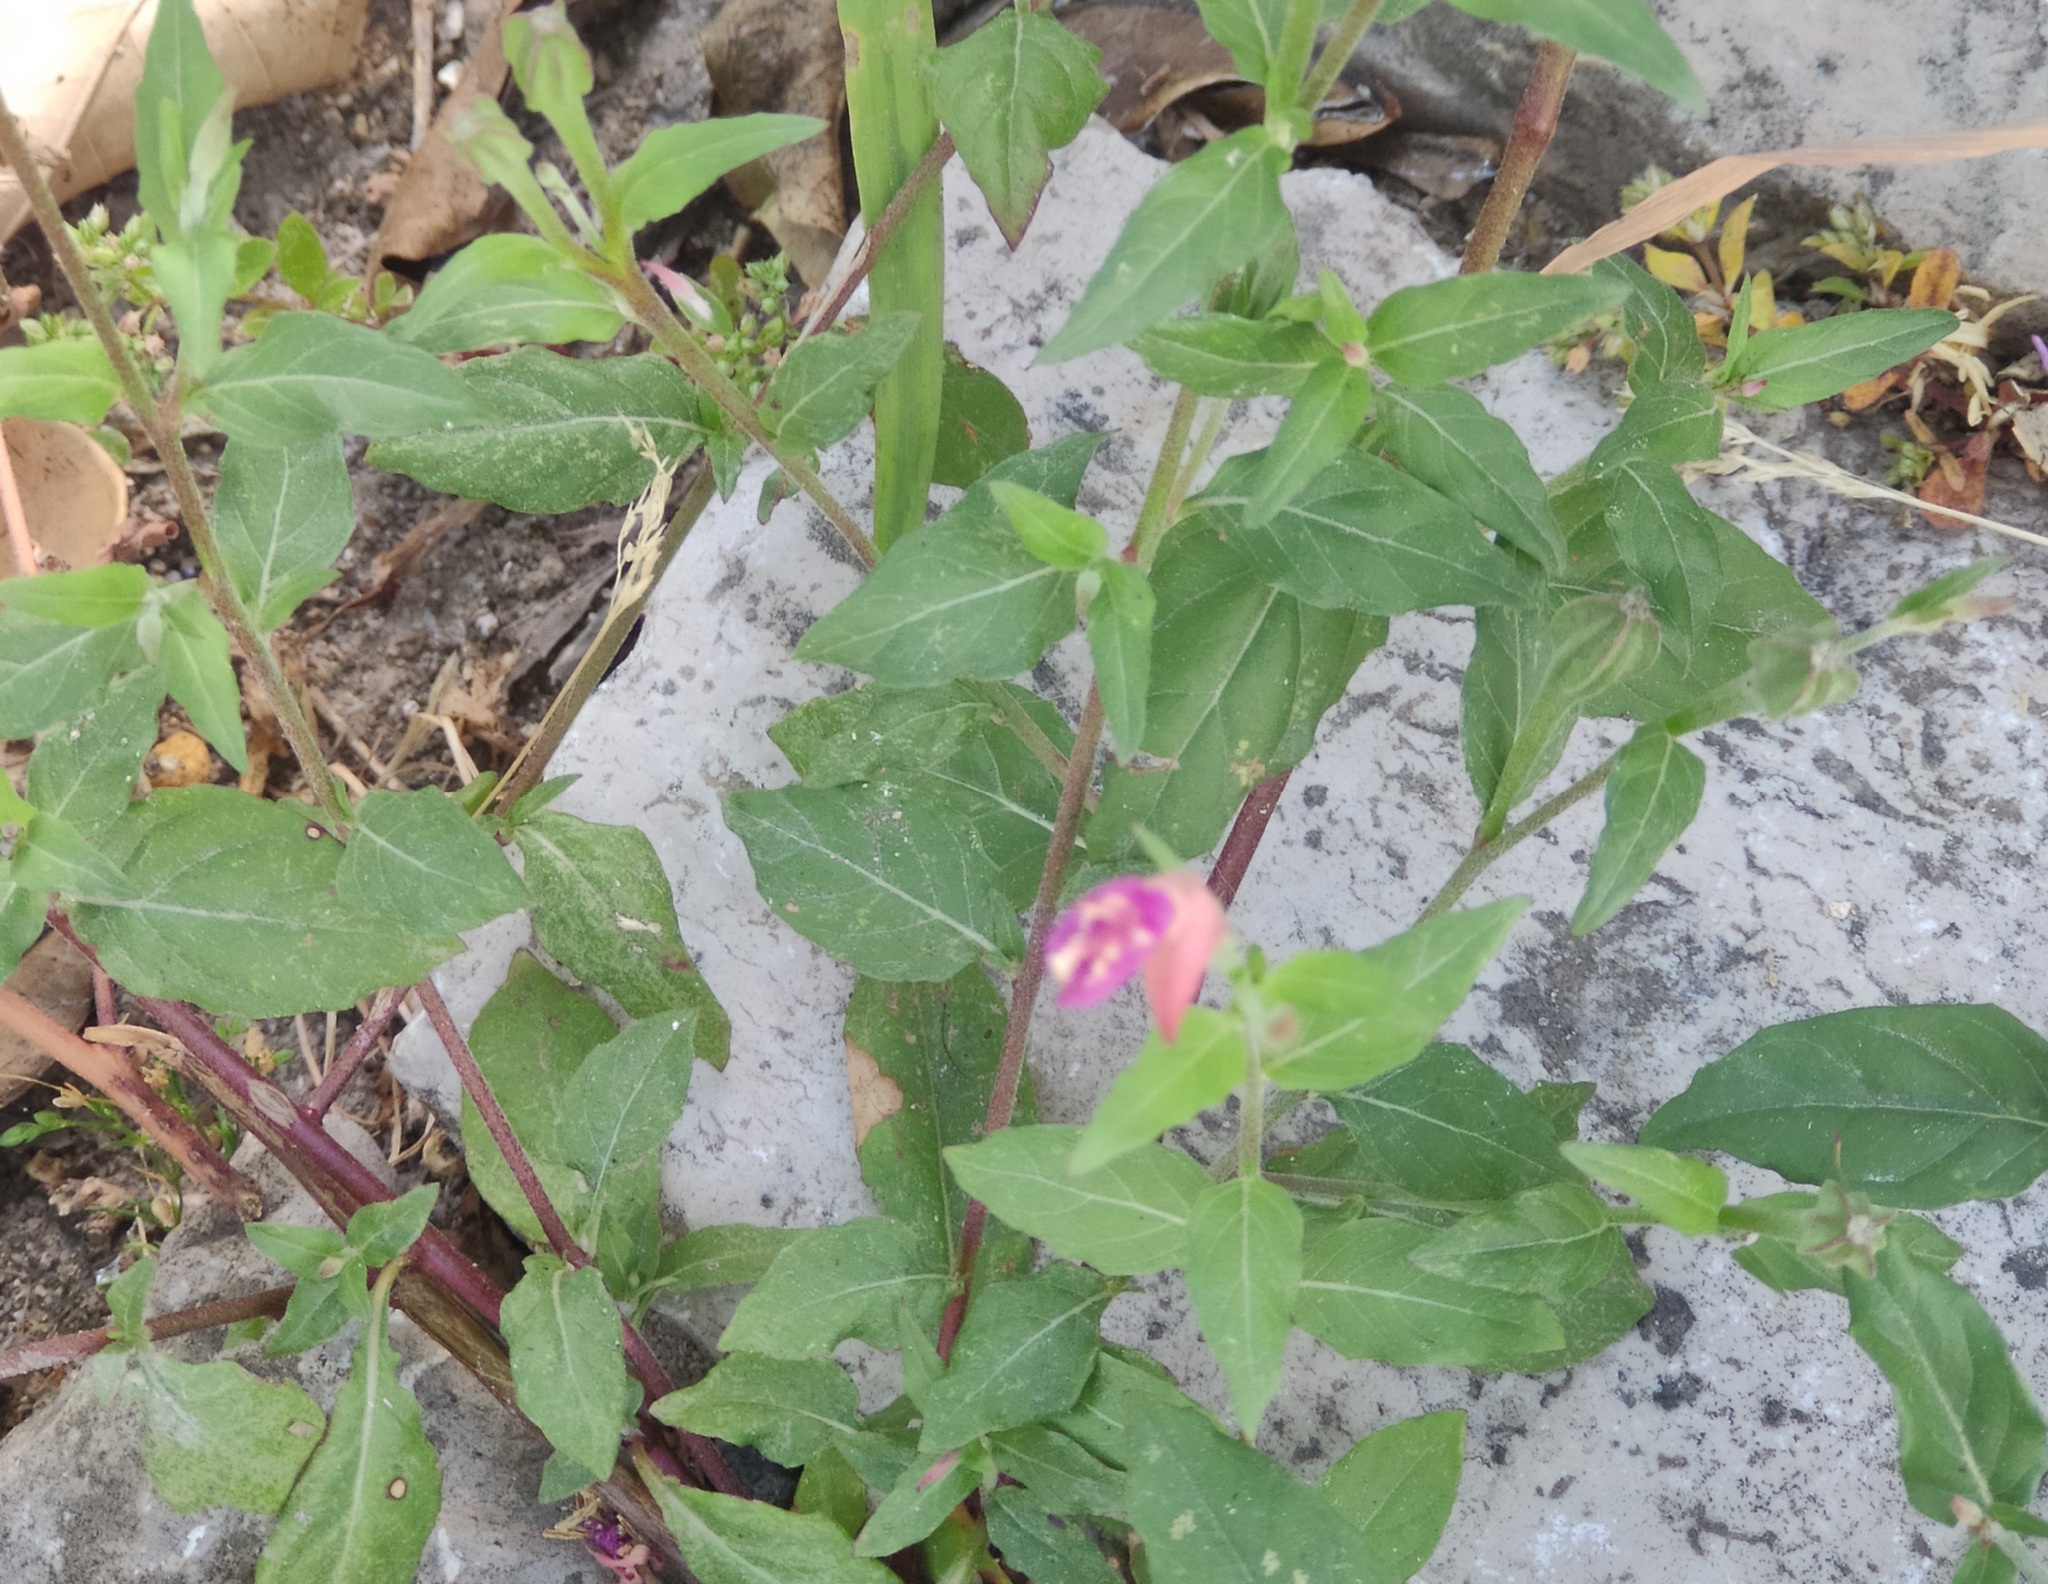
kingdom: Plantae
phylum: Tracheophyta
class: Magnoliopsida
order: Myrtales
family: Onagraceae
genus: Oenothera
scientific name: Oenothera rosea
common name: Rosy evening-primrose
